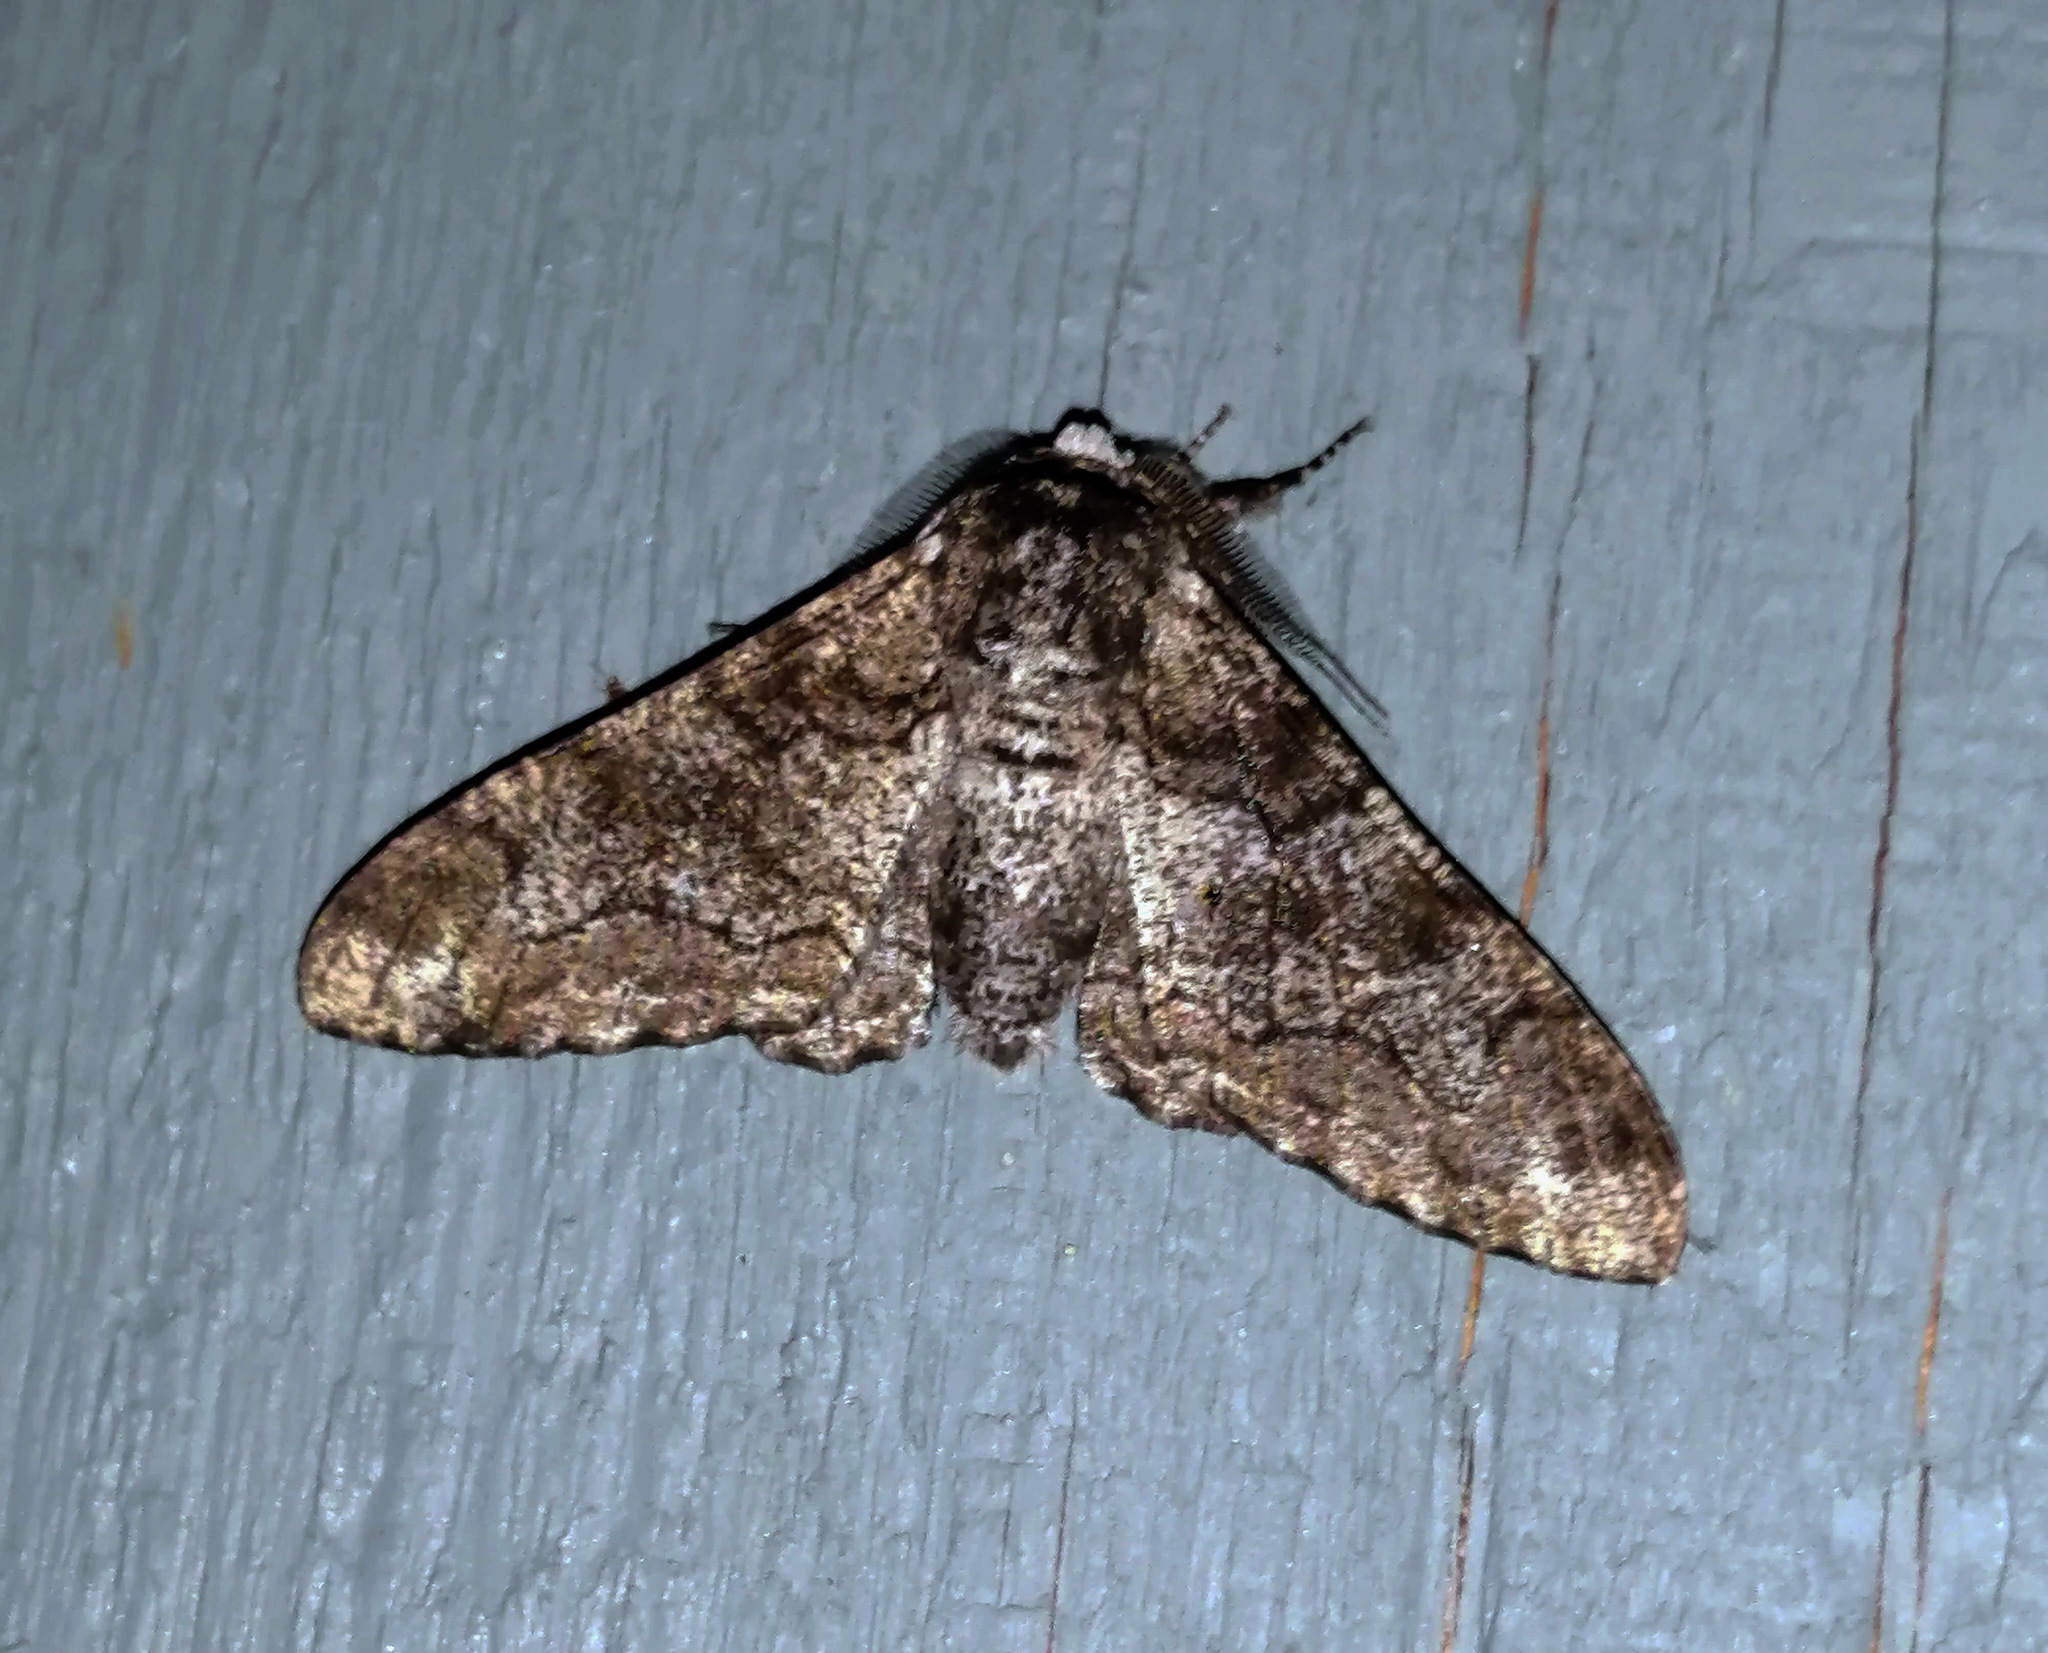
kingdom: Animalia
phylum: Arthropoda
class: Insecta
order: Lepidoptera
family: Geometridae
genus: Biston
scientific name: Biston betularia
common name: Peppered moth
